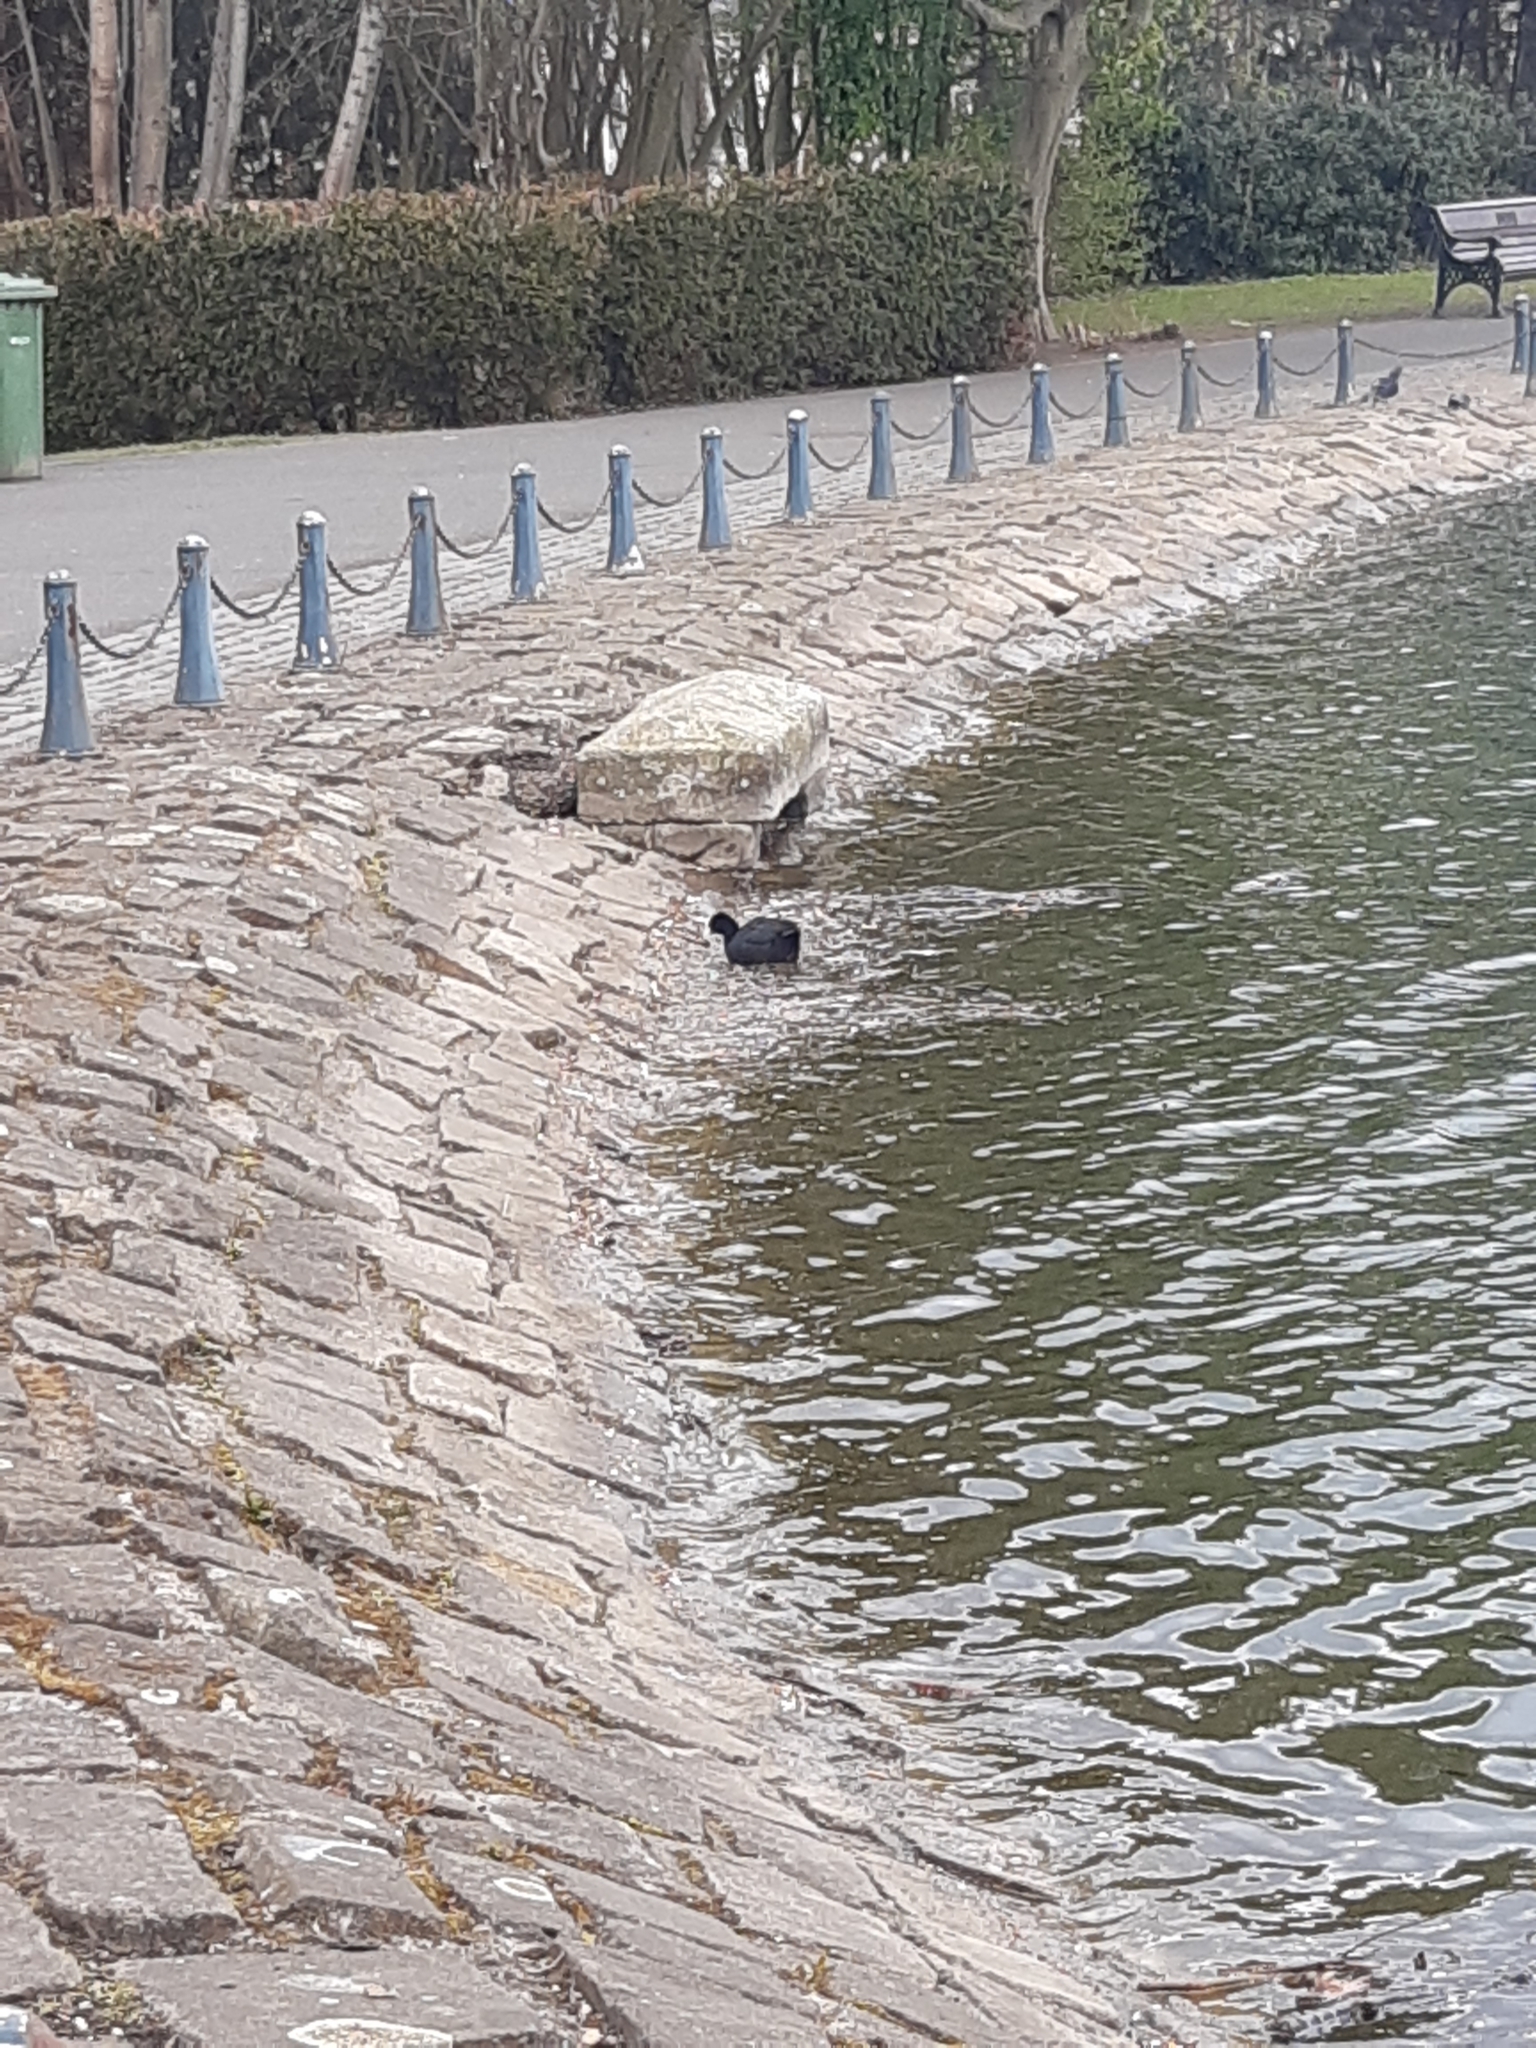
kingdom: Animalia
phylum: Chordata
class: Aves
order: Gruiformes
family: Rallidae
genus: Fulica
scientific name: Fulica atra
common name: Eurasian coot
